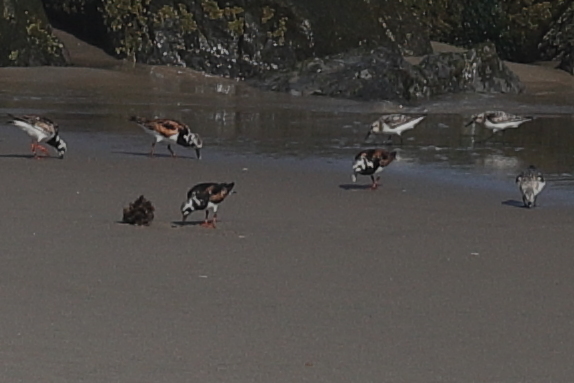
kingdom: Animalia
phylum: Chordata
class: Aves
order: Charadriiformes
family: Scolopacidae
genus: Arenaria
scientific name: Arenaria interpres
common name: Ruddy turnstone
